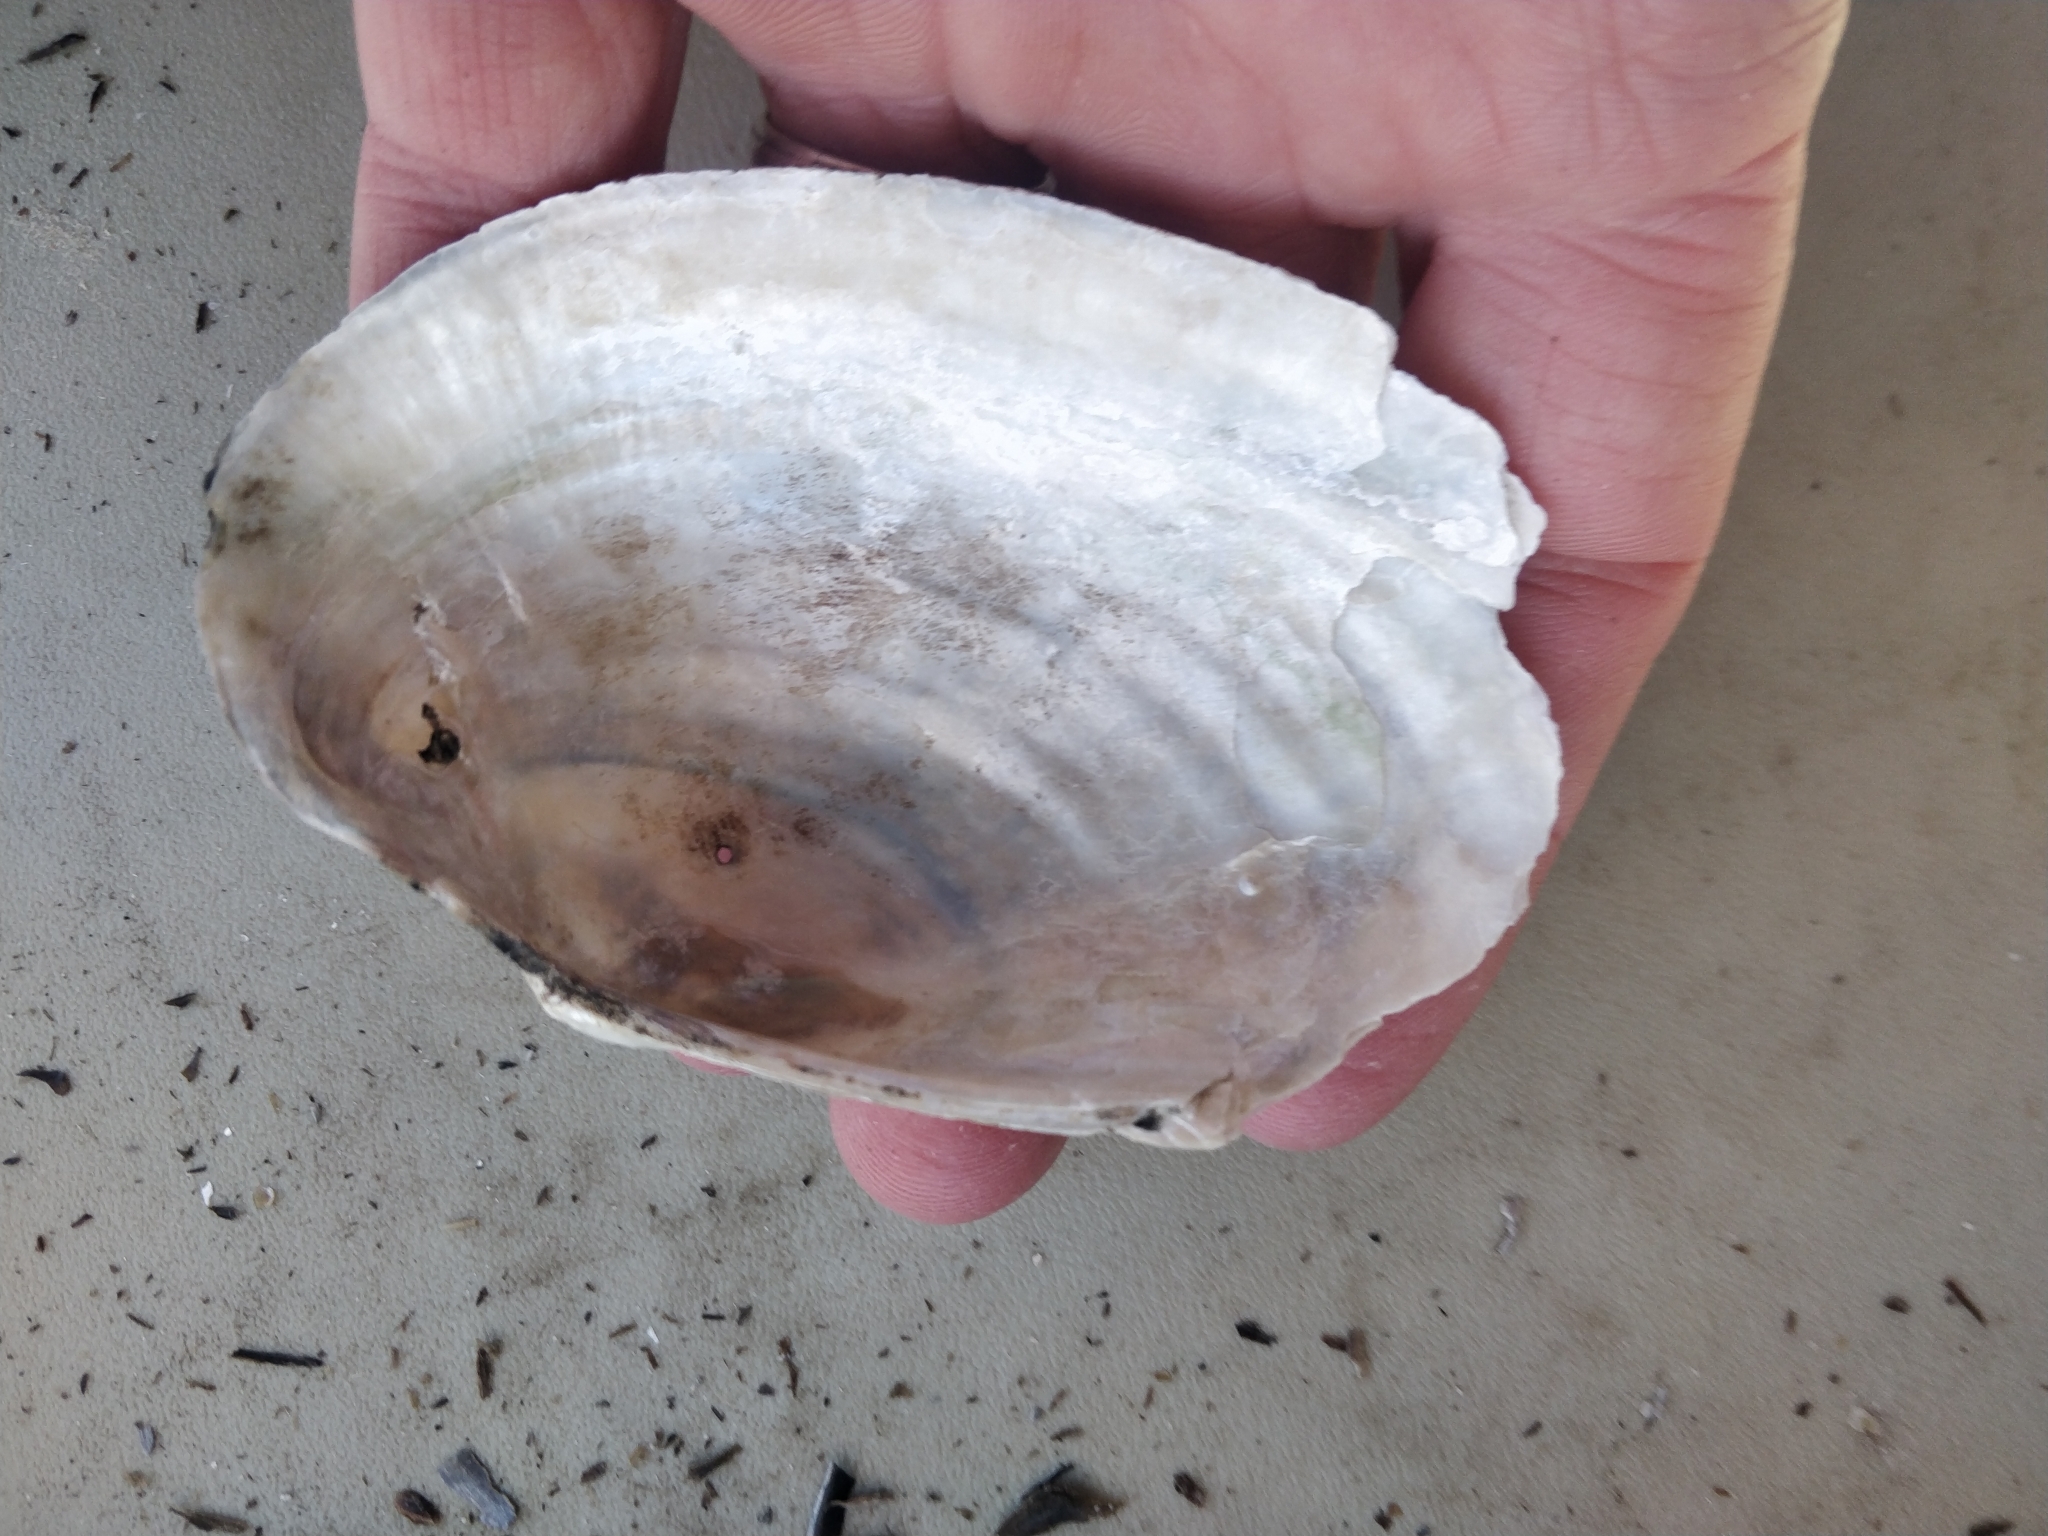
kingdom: Animalia
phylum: Mollusca
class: Bivalvia
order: Unionida
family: Unionidae
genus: Pyganodon
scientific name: Pyganodon grandis
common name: Giant floater
